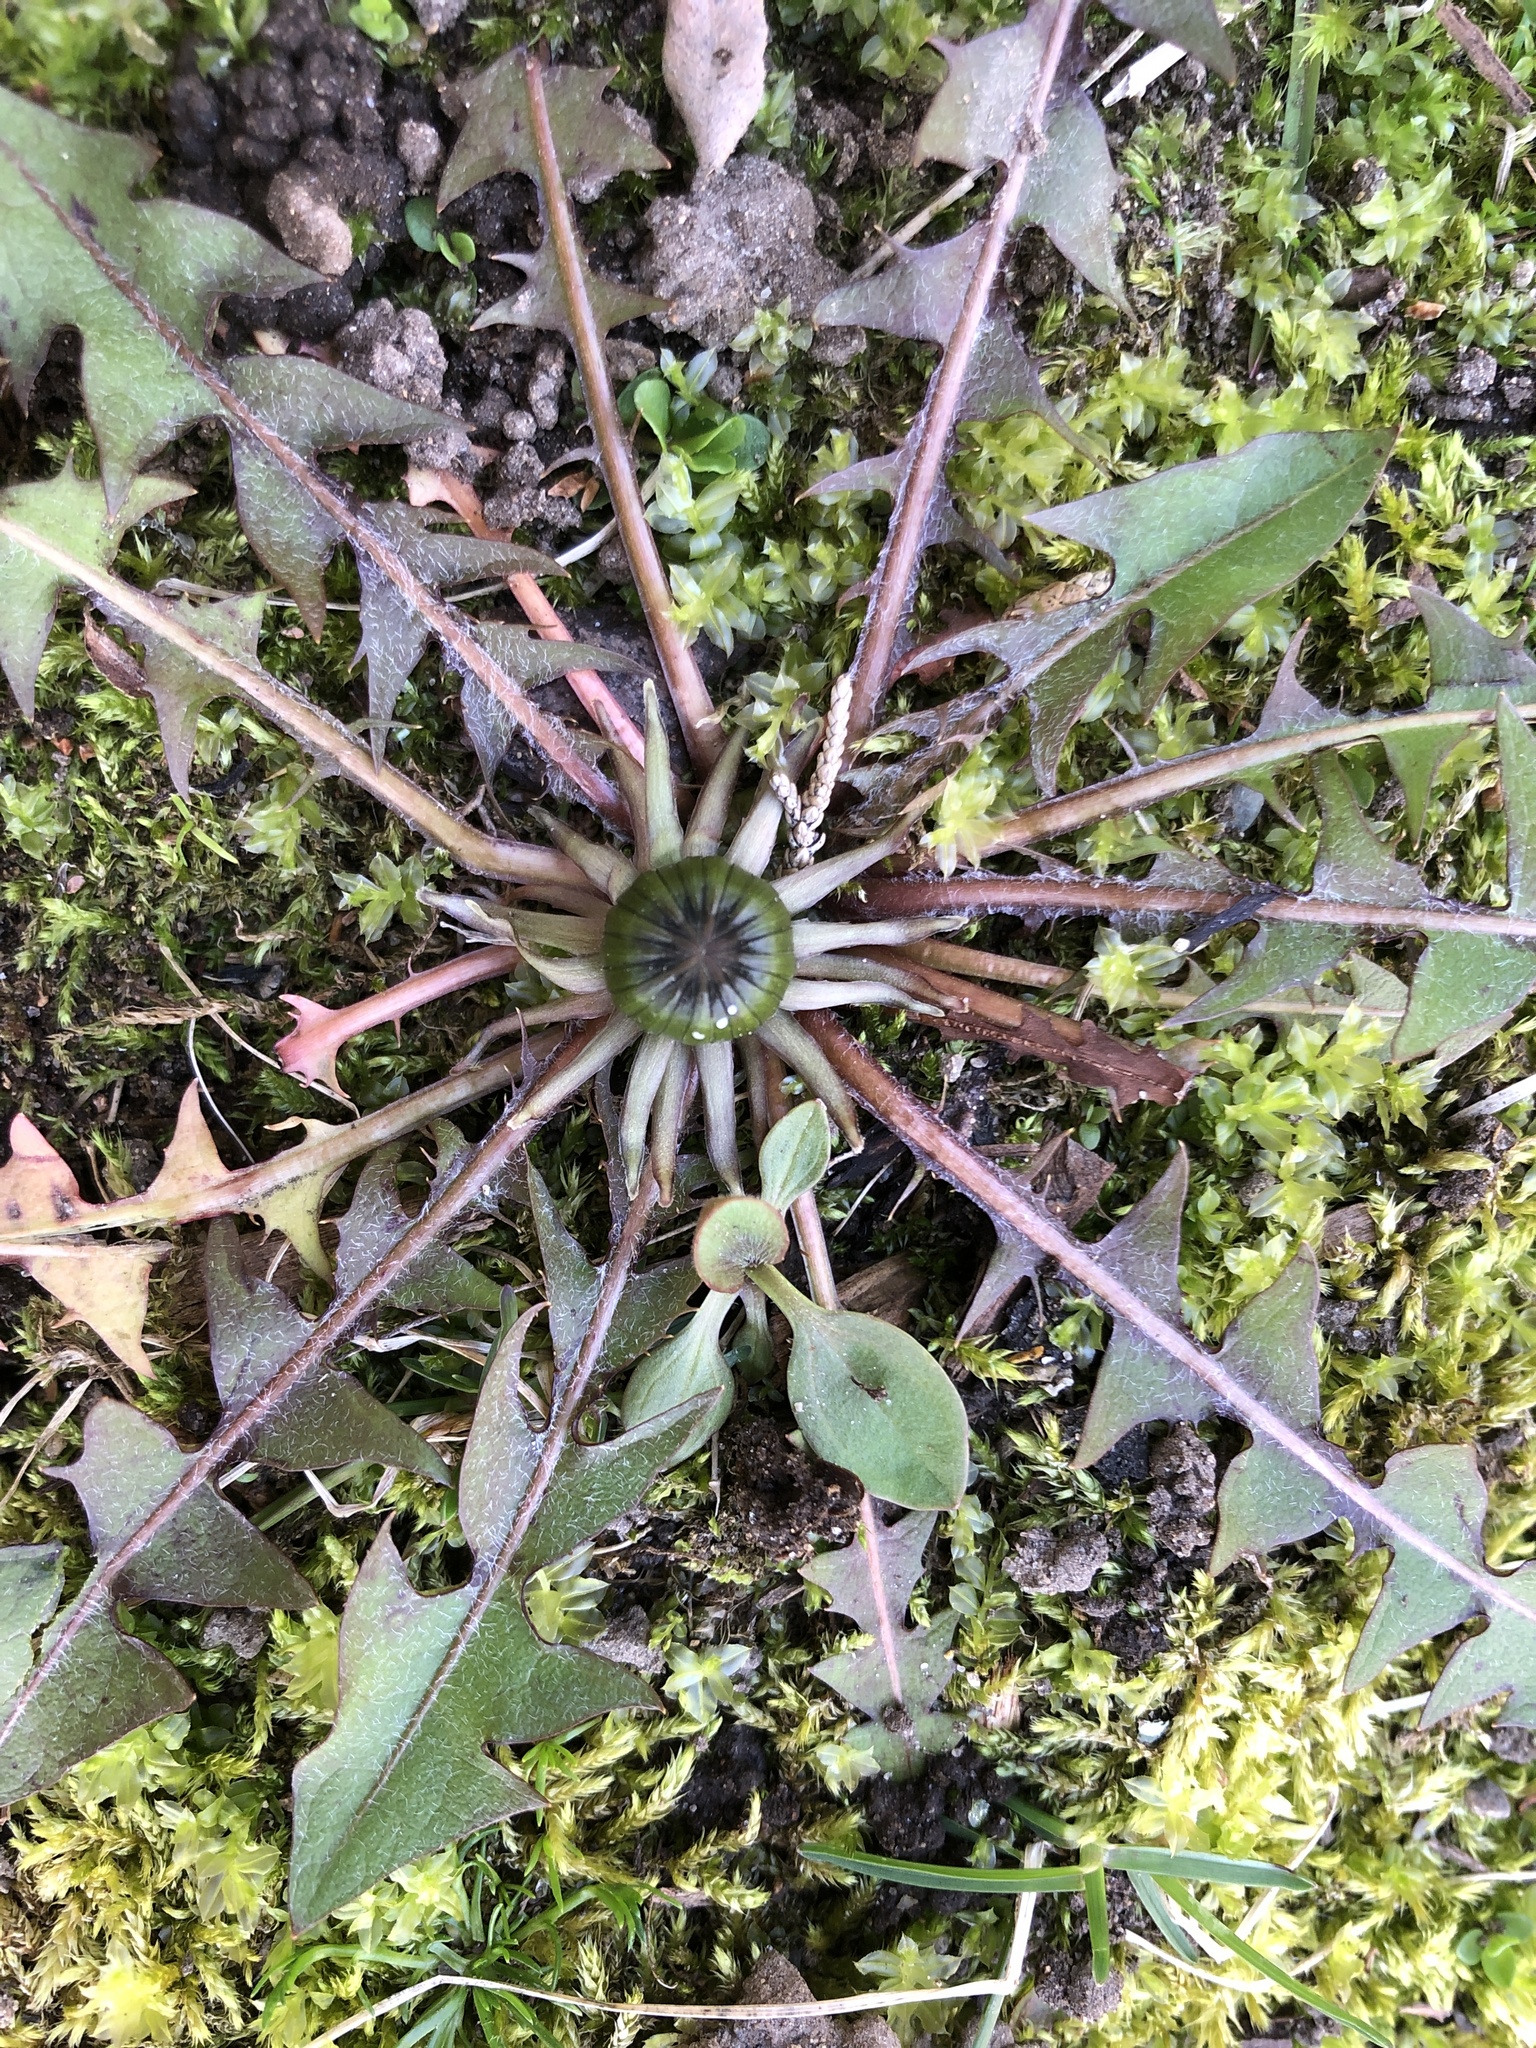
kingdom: Plantae
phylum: Tracheophyta
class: Magnoliopsida
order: Asterales
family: Asteraceae
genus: Taraxacum
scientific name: Taraxacum
